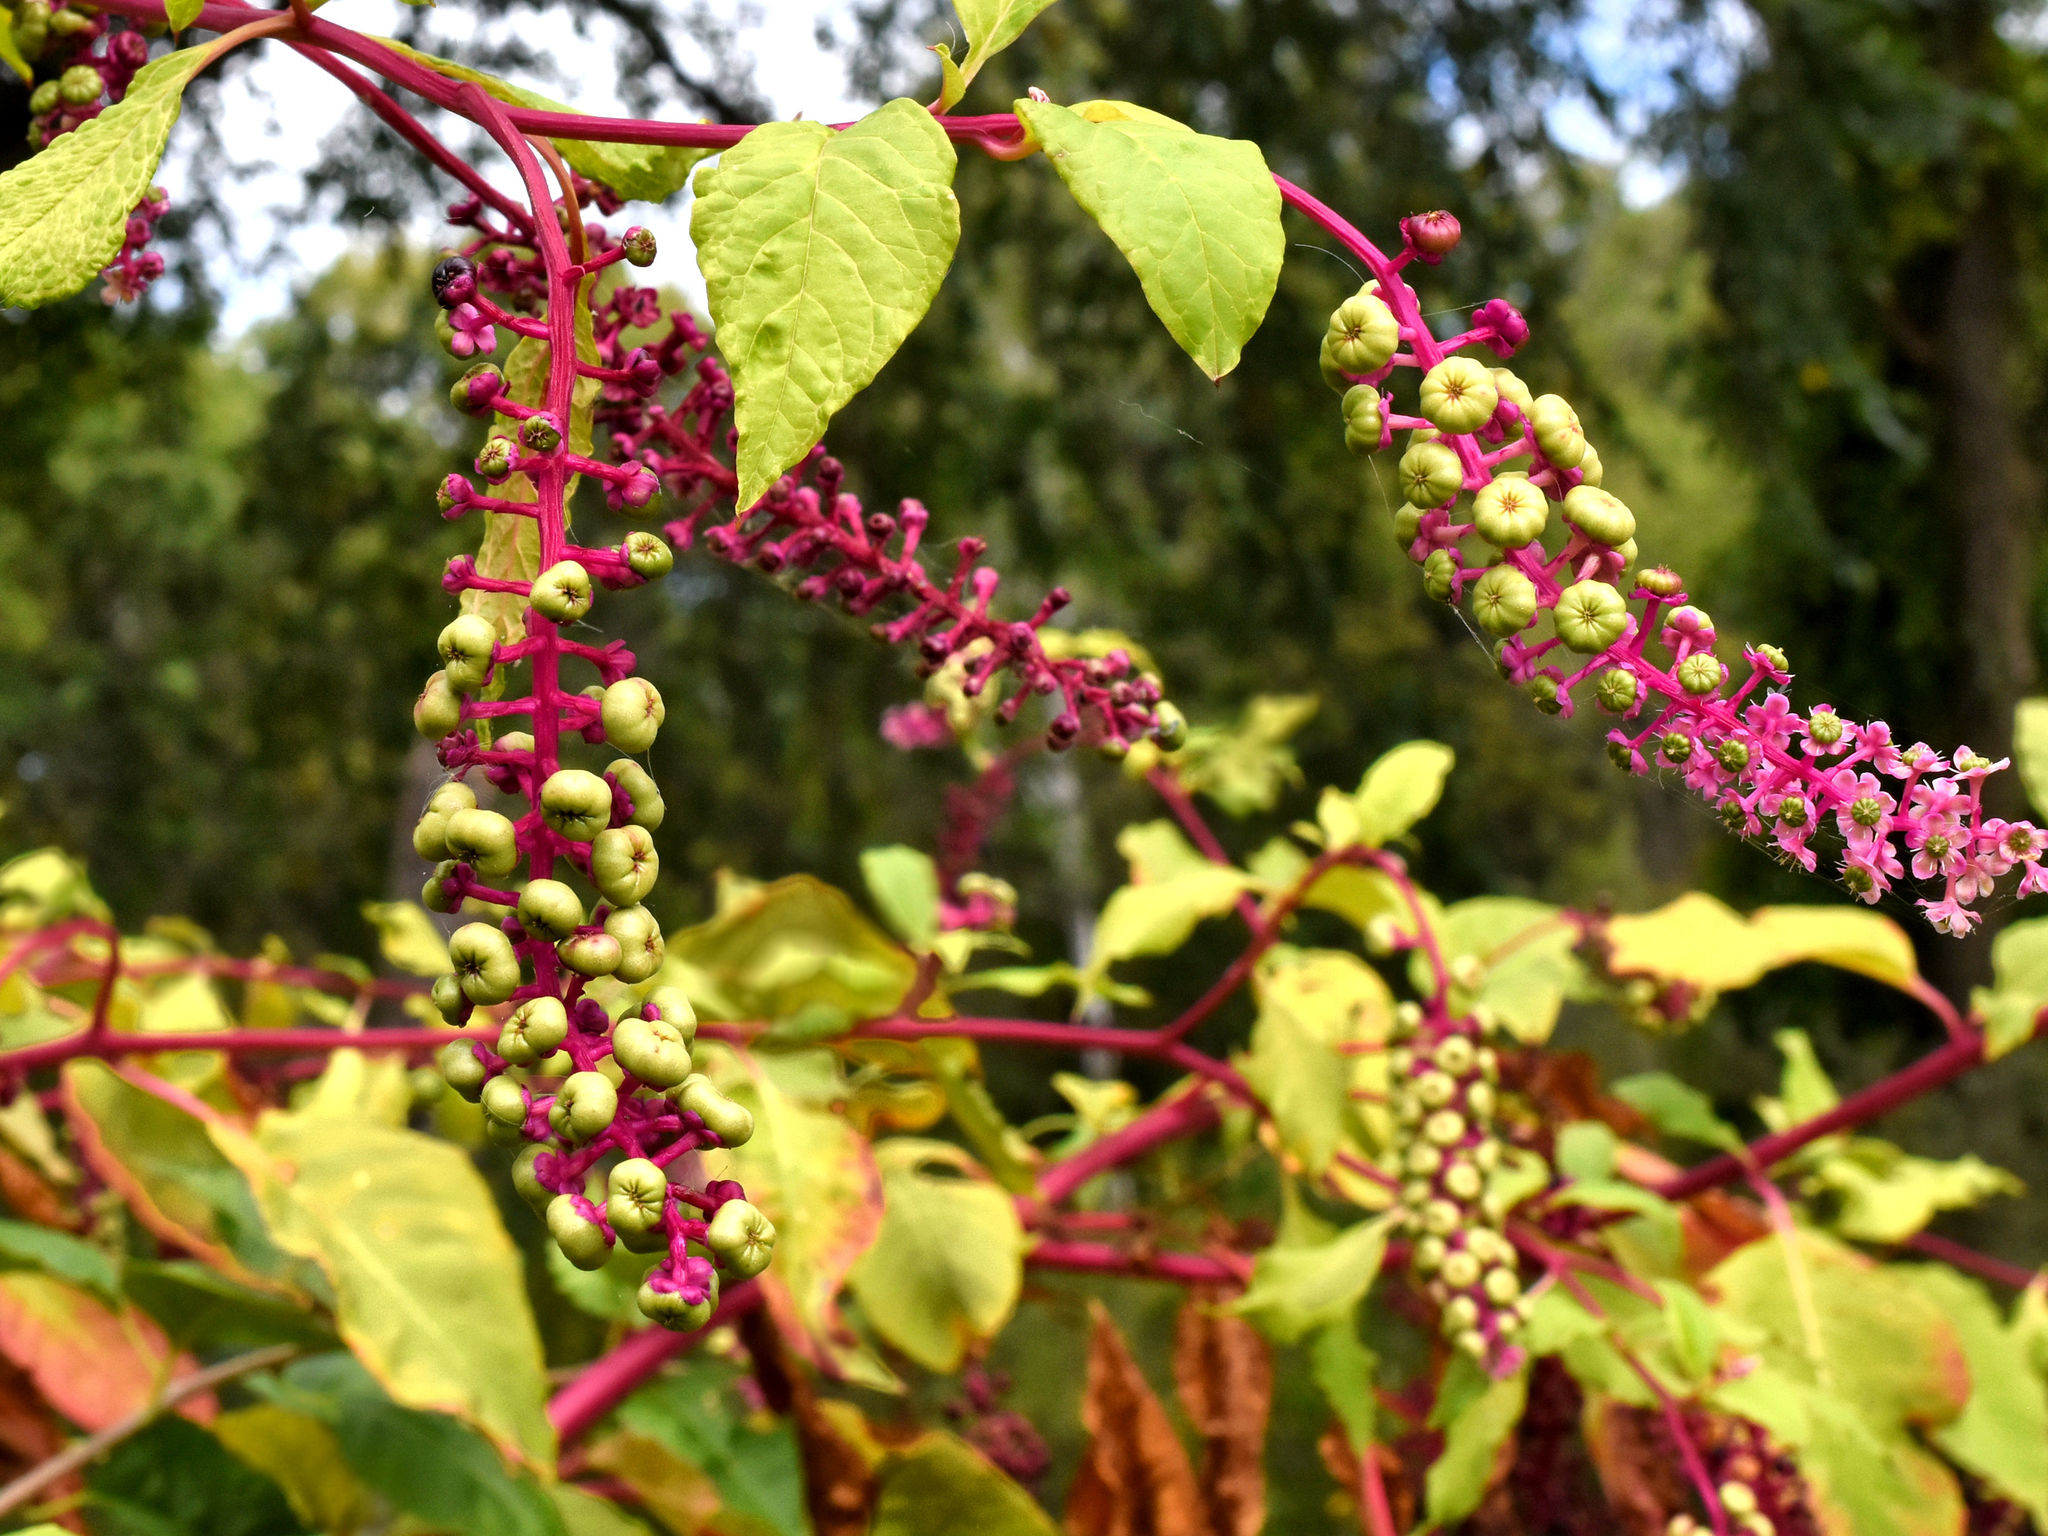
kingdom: Plantae
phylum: Tracheophyta
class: Magnoliopsida
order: Caryophyllales
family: Phytolaccaceae
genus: Phytolacca
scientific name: Phytolacca americana
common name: American pokeweed
